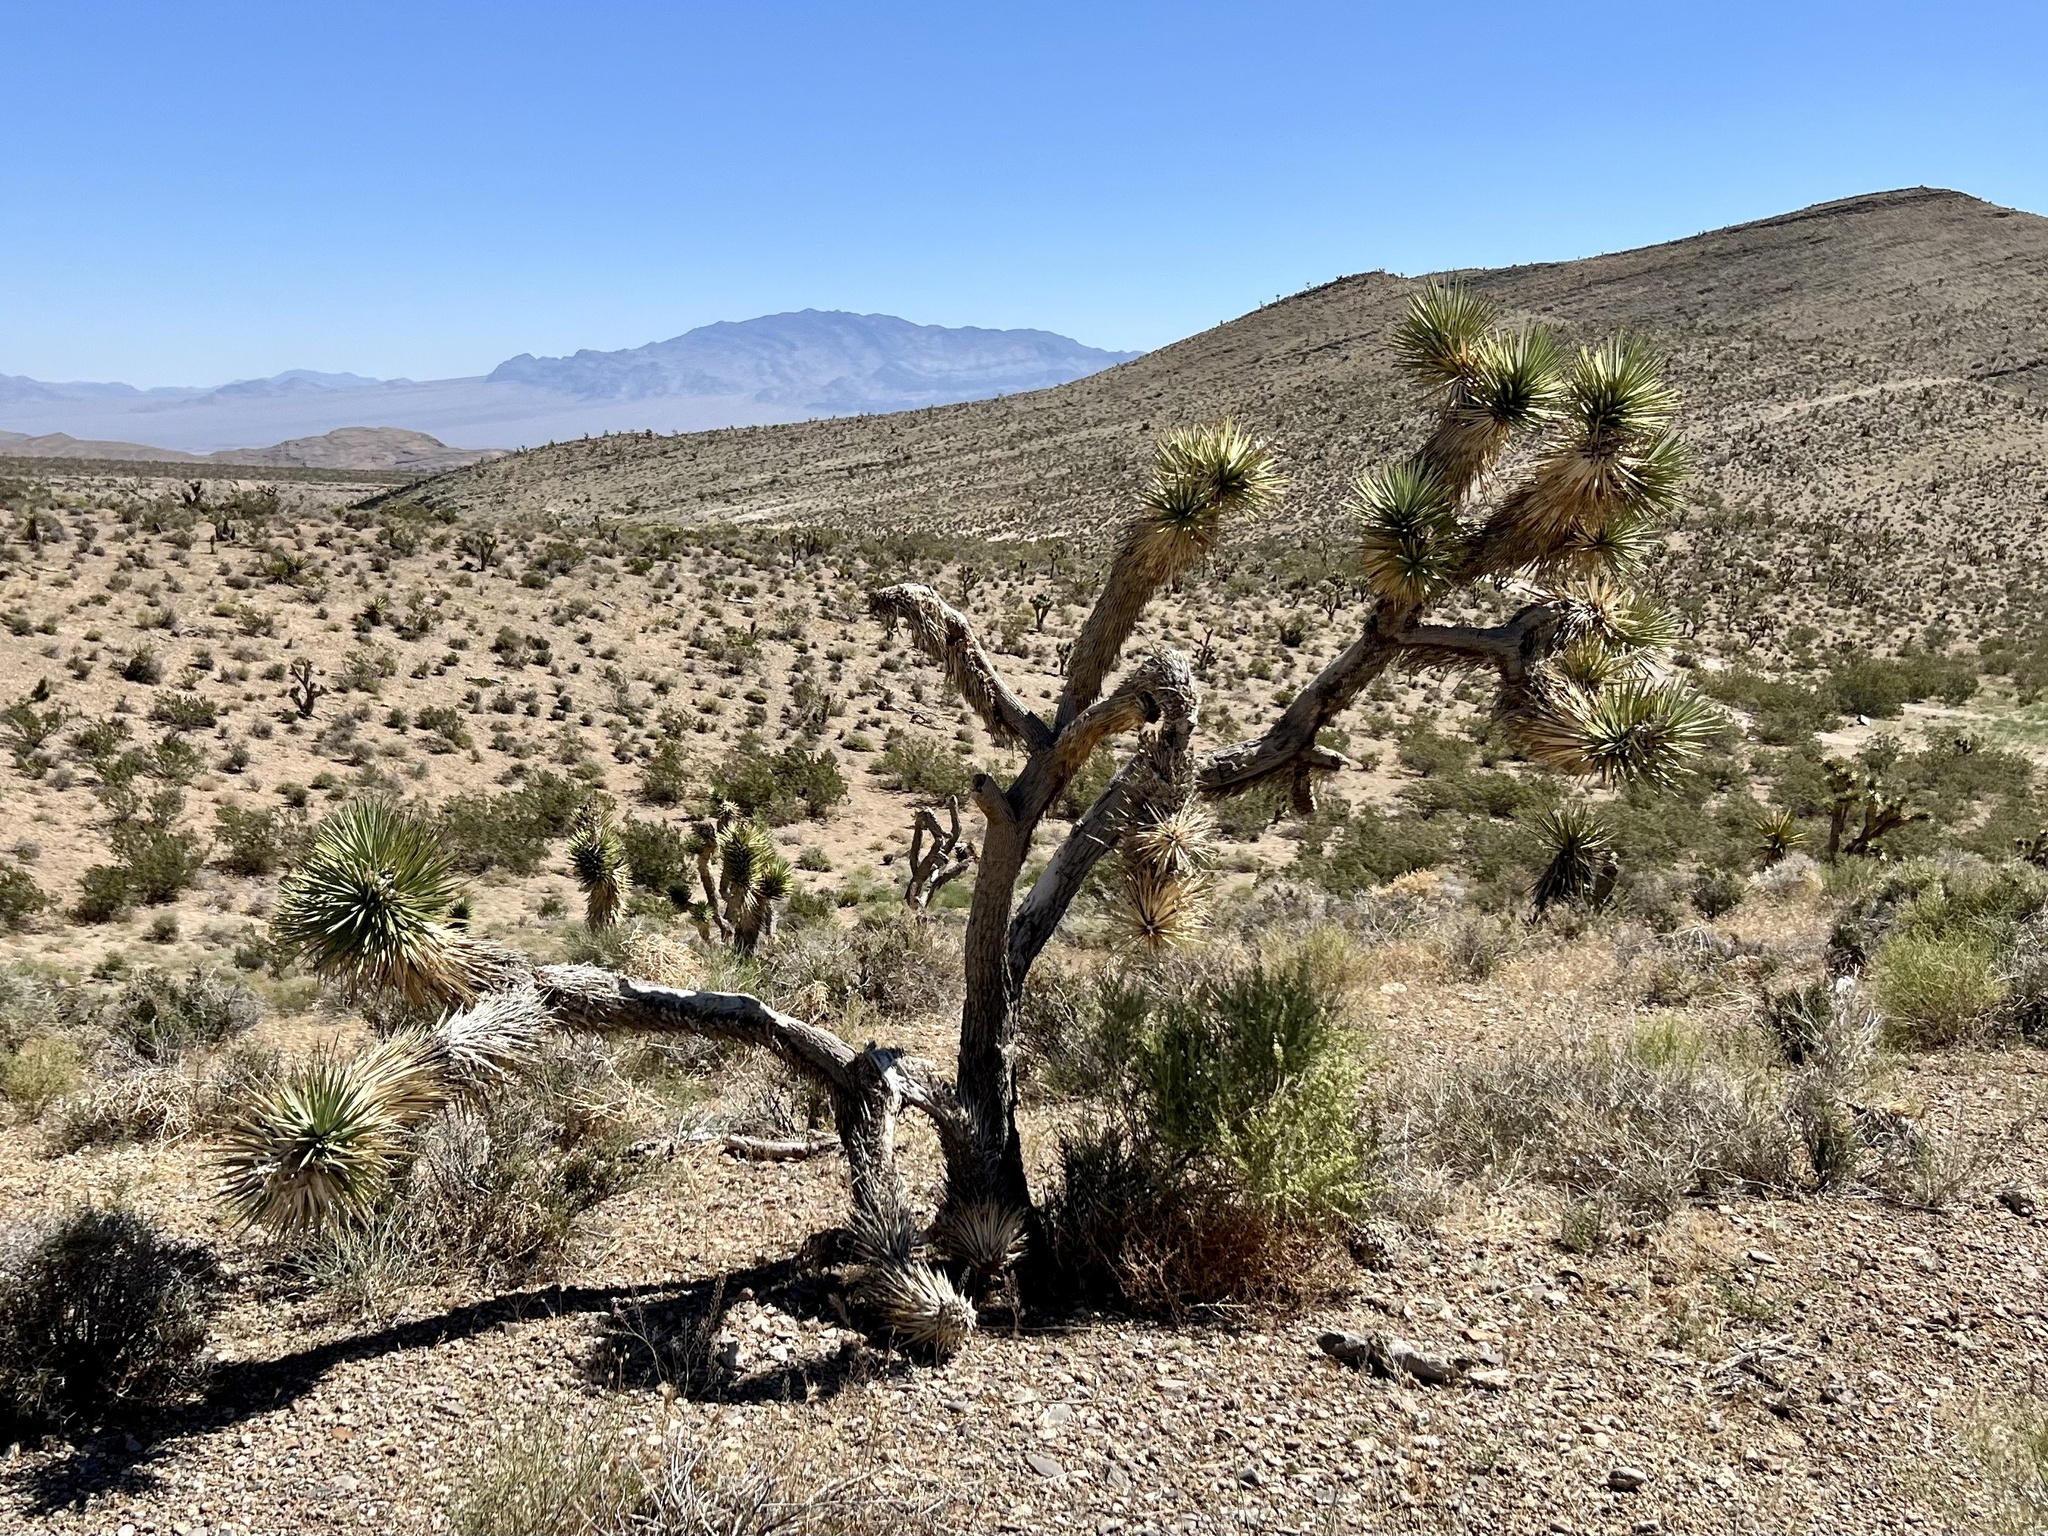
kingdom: Plantae
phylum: Tracheophyta
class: Liliopsida
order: Asparagales
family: Asparagaceae
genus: Yucca
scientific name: Yucca brevifolia
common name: Joshua tree
